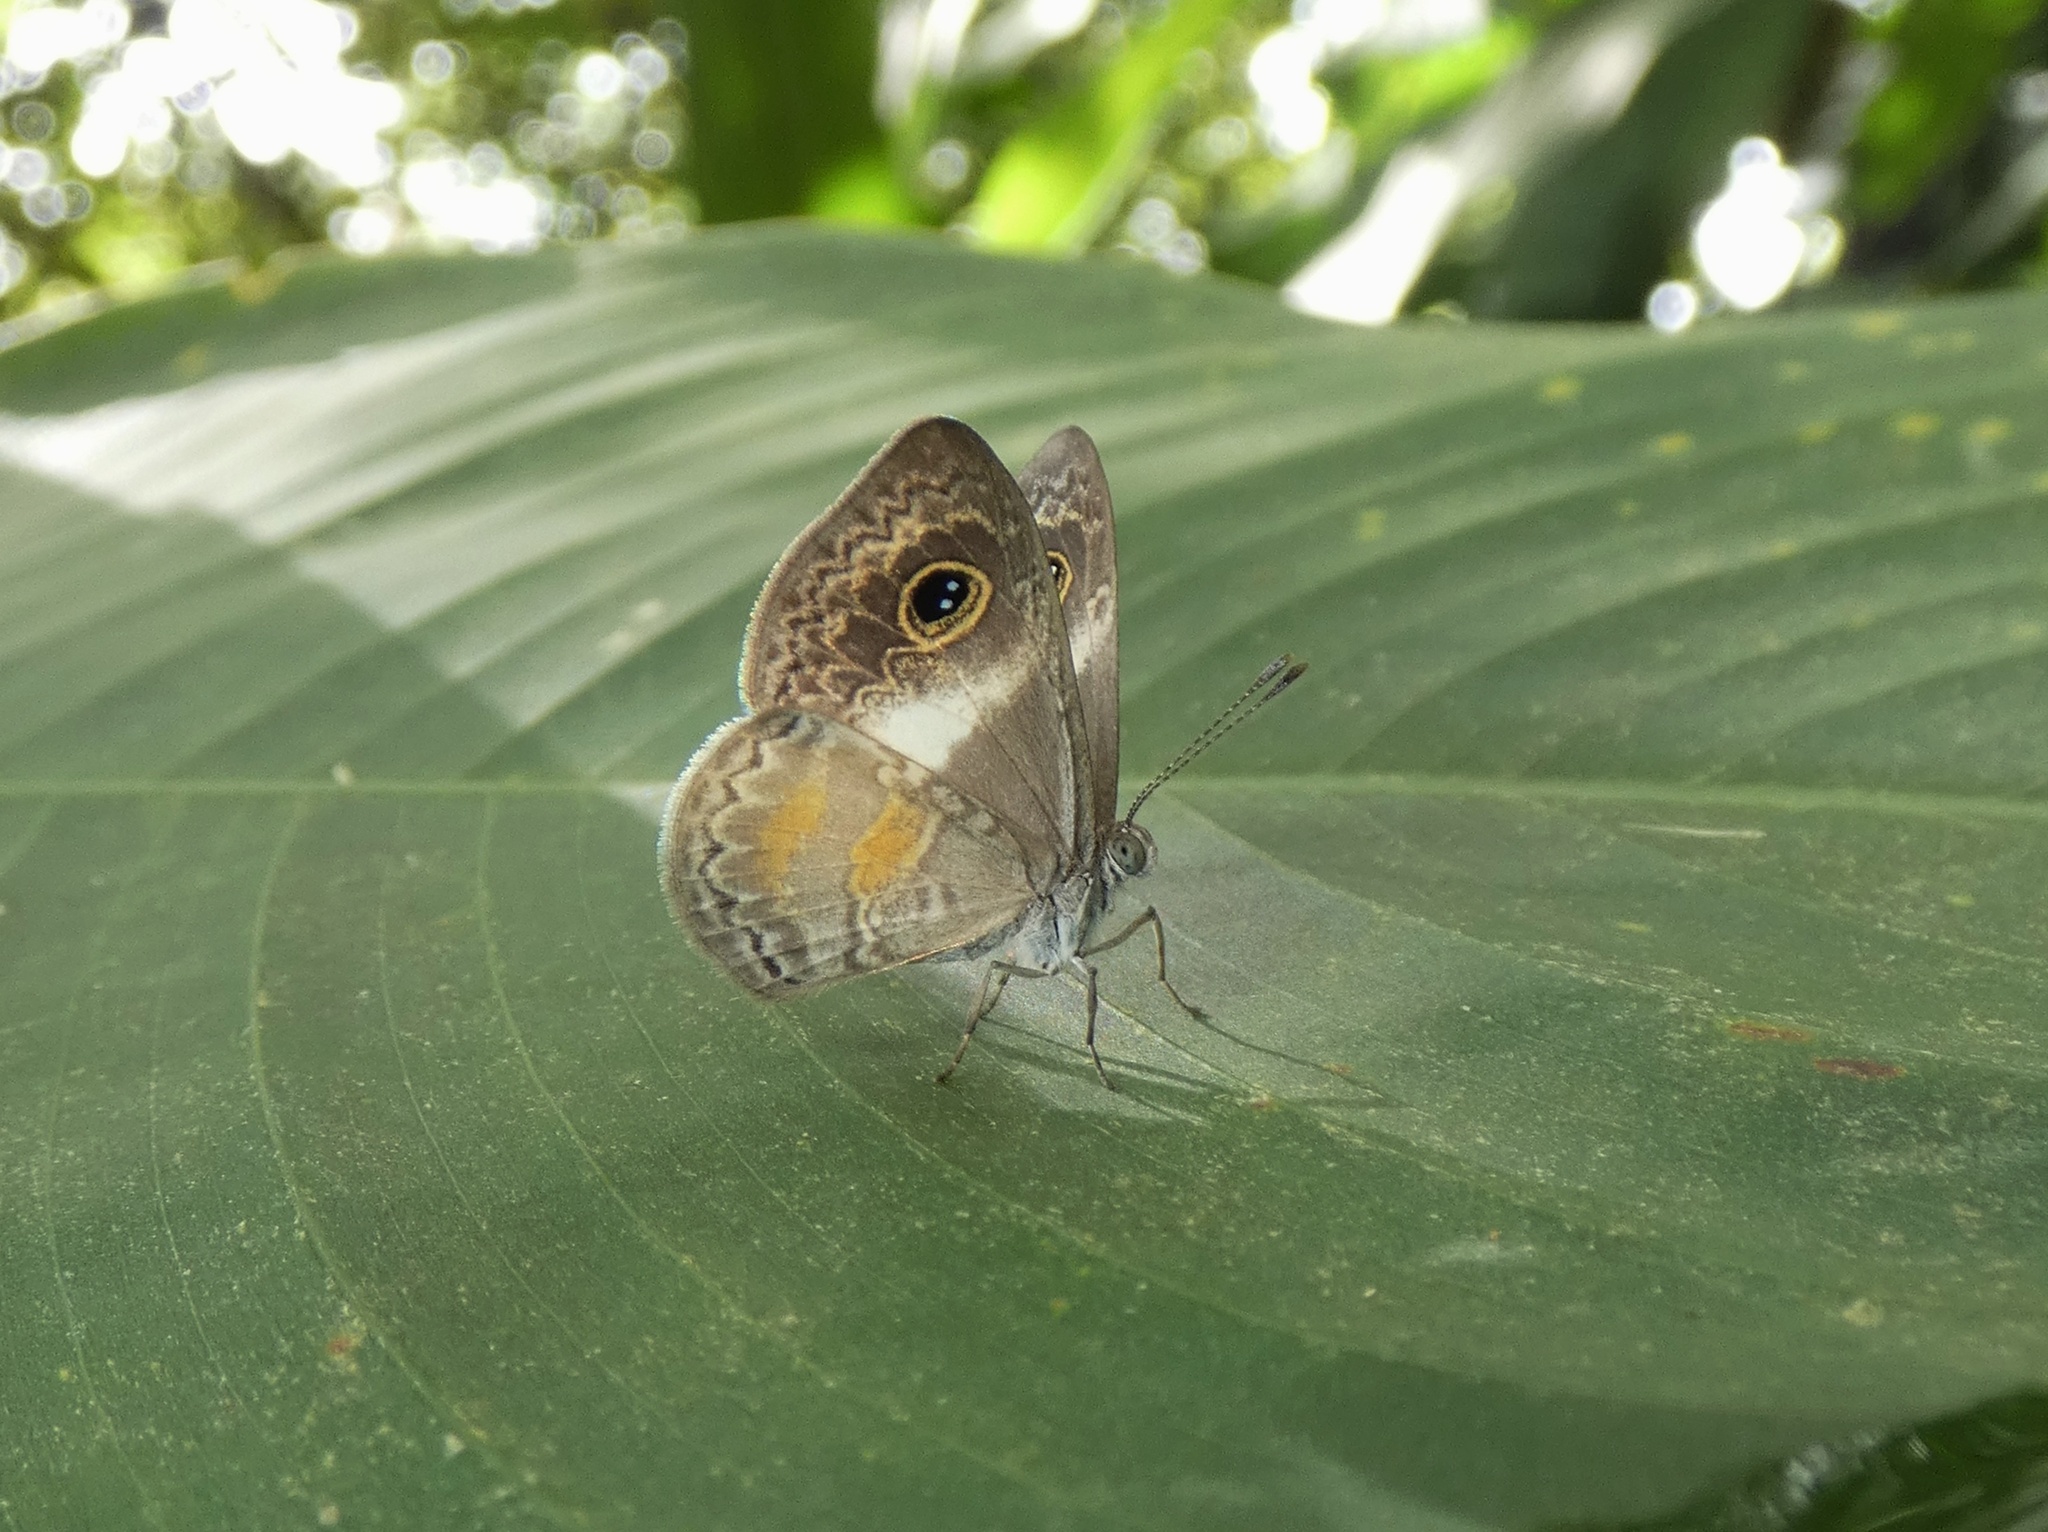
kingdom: Animalia
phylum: Arthropoda
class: Insecta
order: Lepidoptera
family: Riodinidae
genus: Perophthalma
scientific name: Perophthalma lasus
